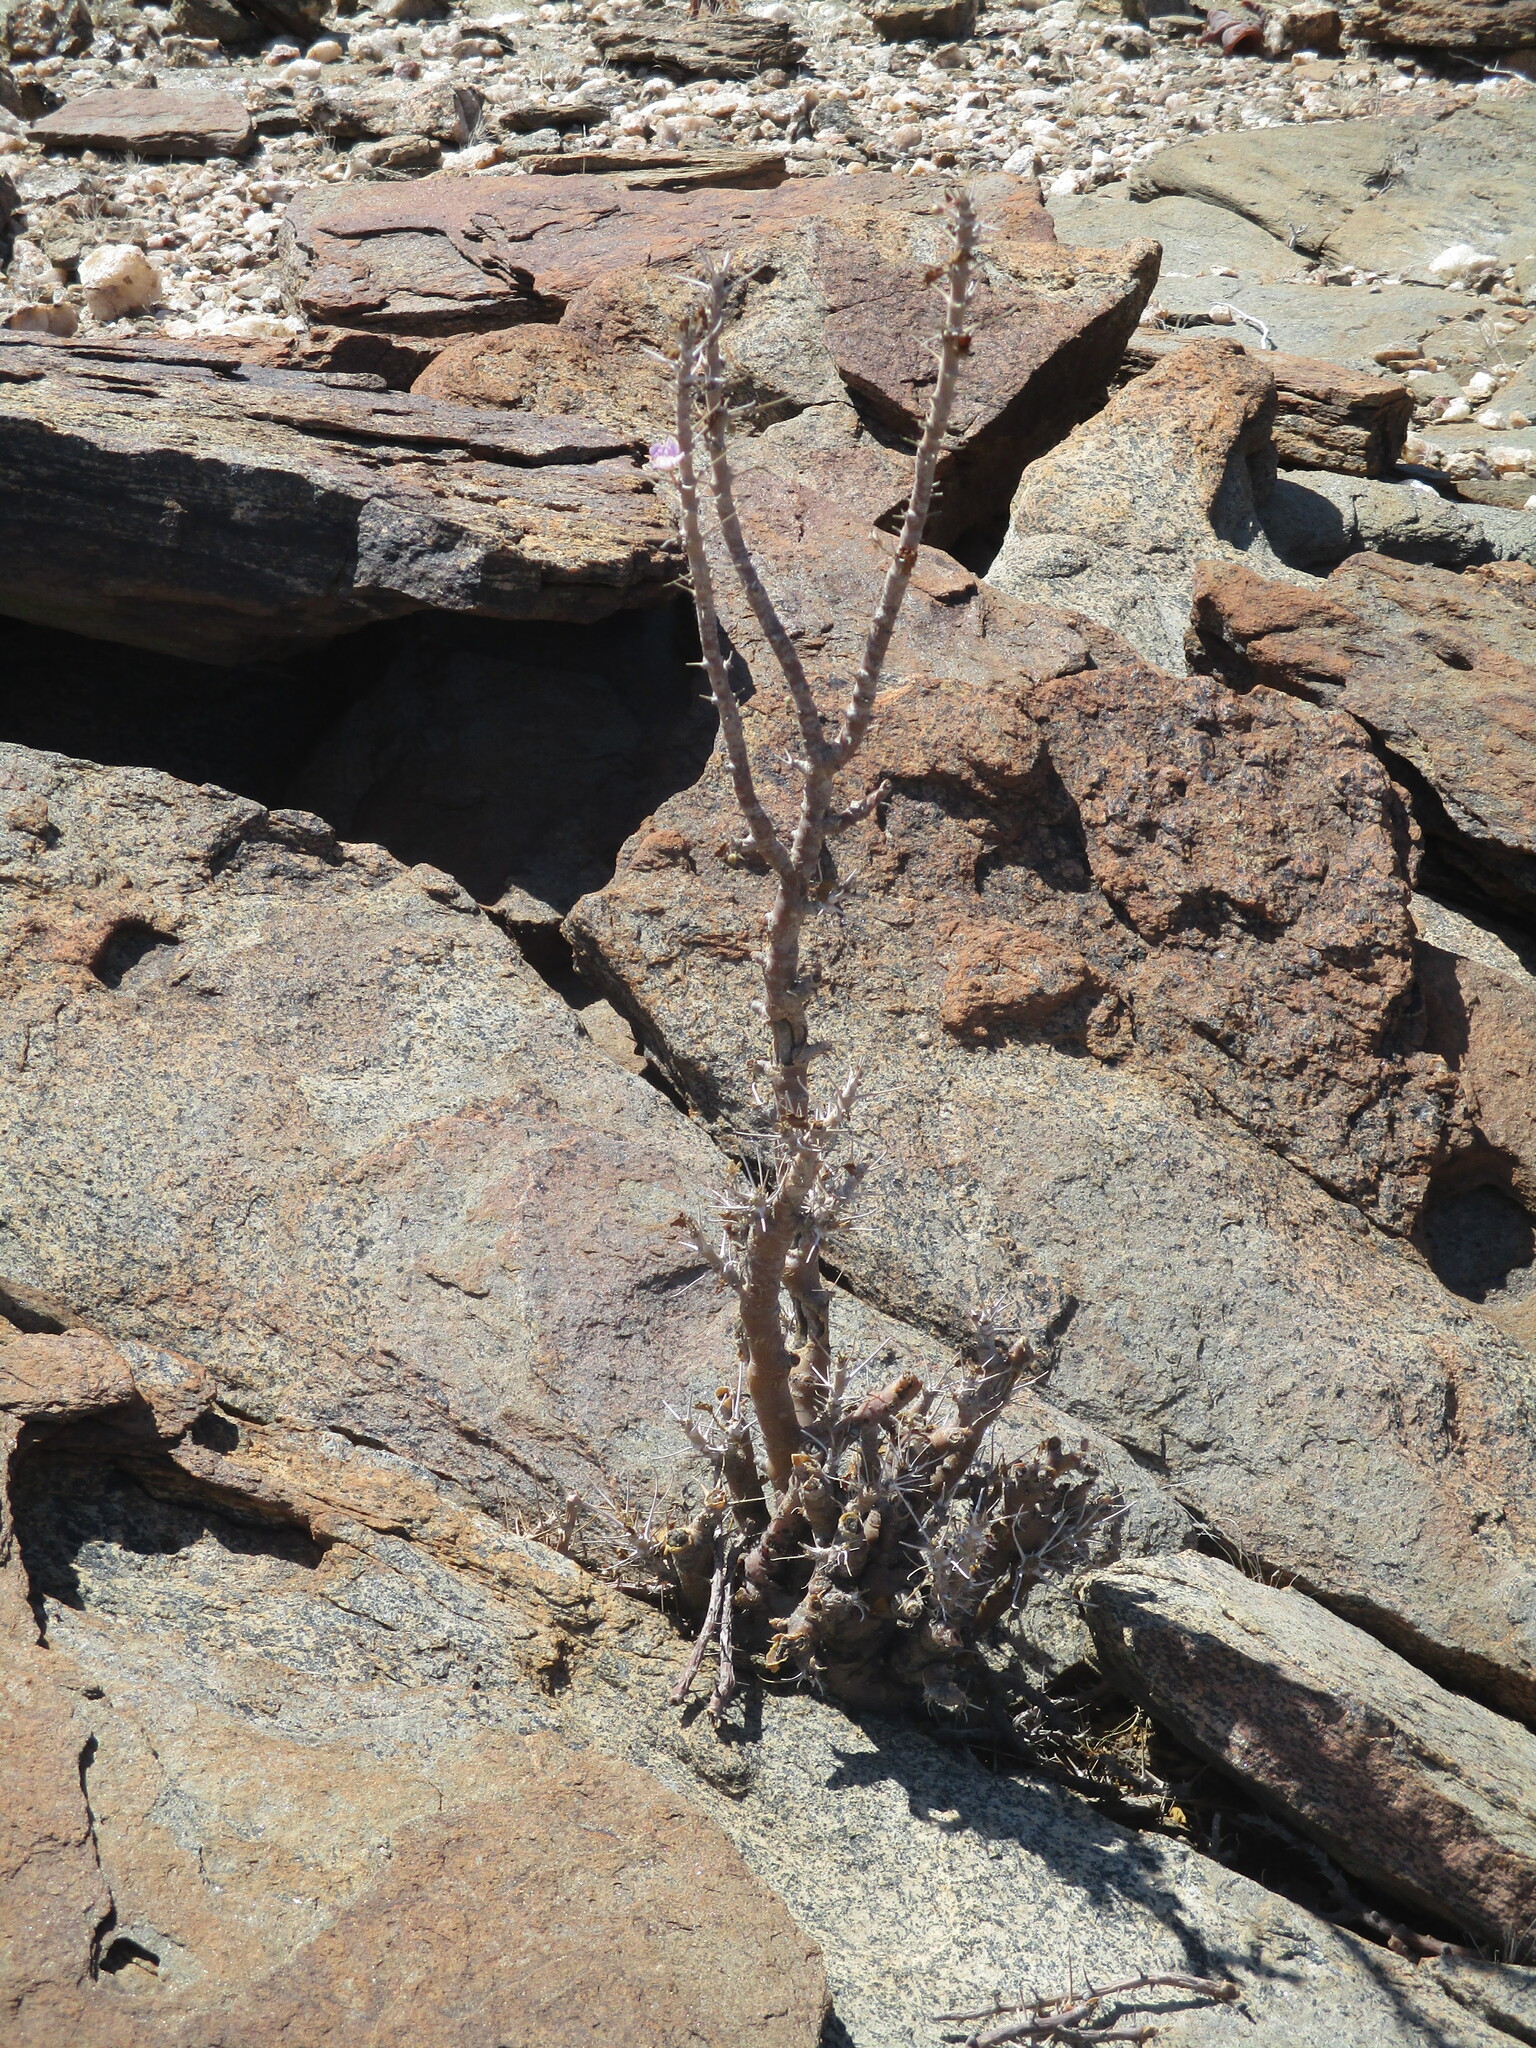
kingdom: Plantae
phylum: Tracheophyta
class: Magnoliopsida
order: Geraniales
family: Geraniaceae
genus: Monsonia
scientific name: Monsonia marlothii
